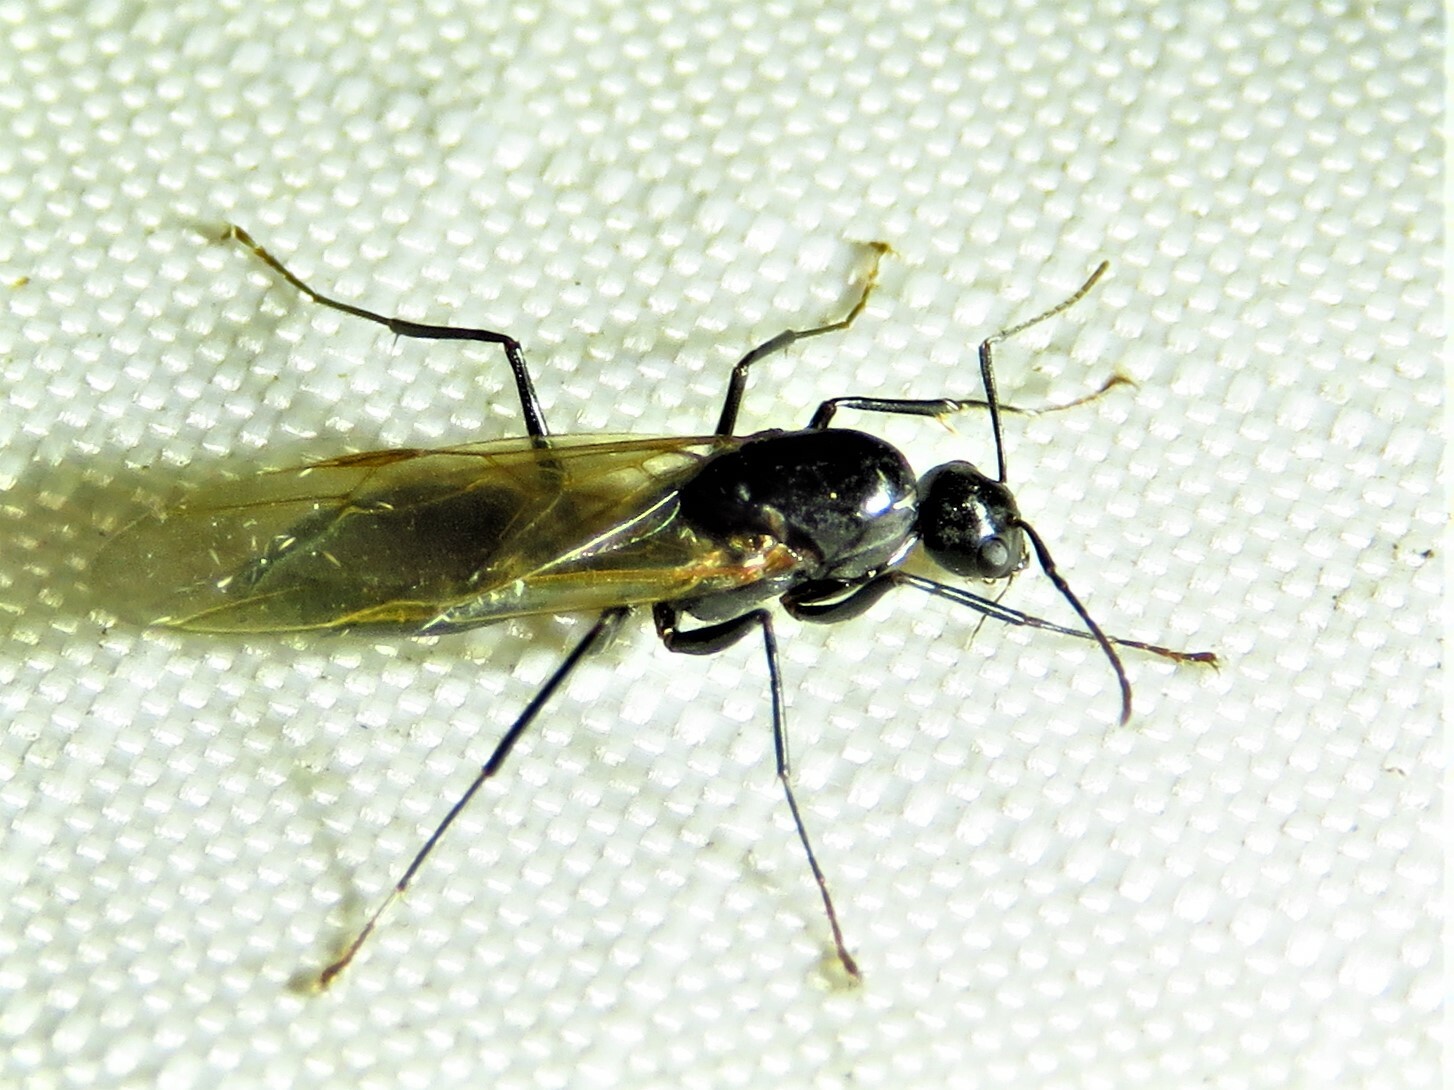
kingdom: Animalia
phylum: Arthropoda
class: Insecta
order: Hymenoptera
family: Formicidae
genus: Camponotus
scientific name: Camponotus pennsylvanicus
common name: Black carpenter ant
